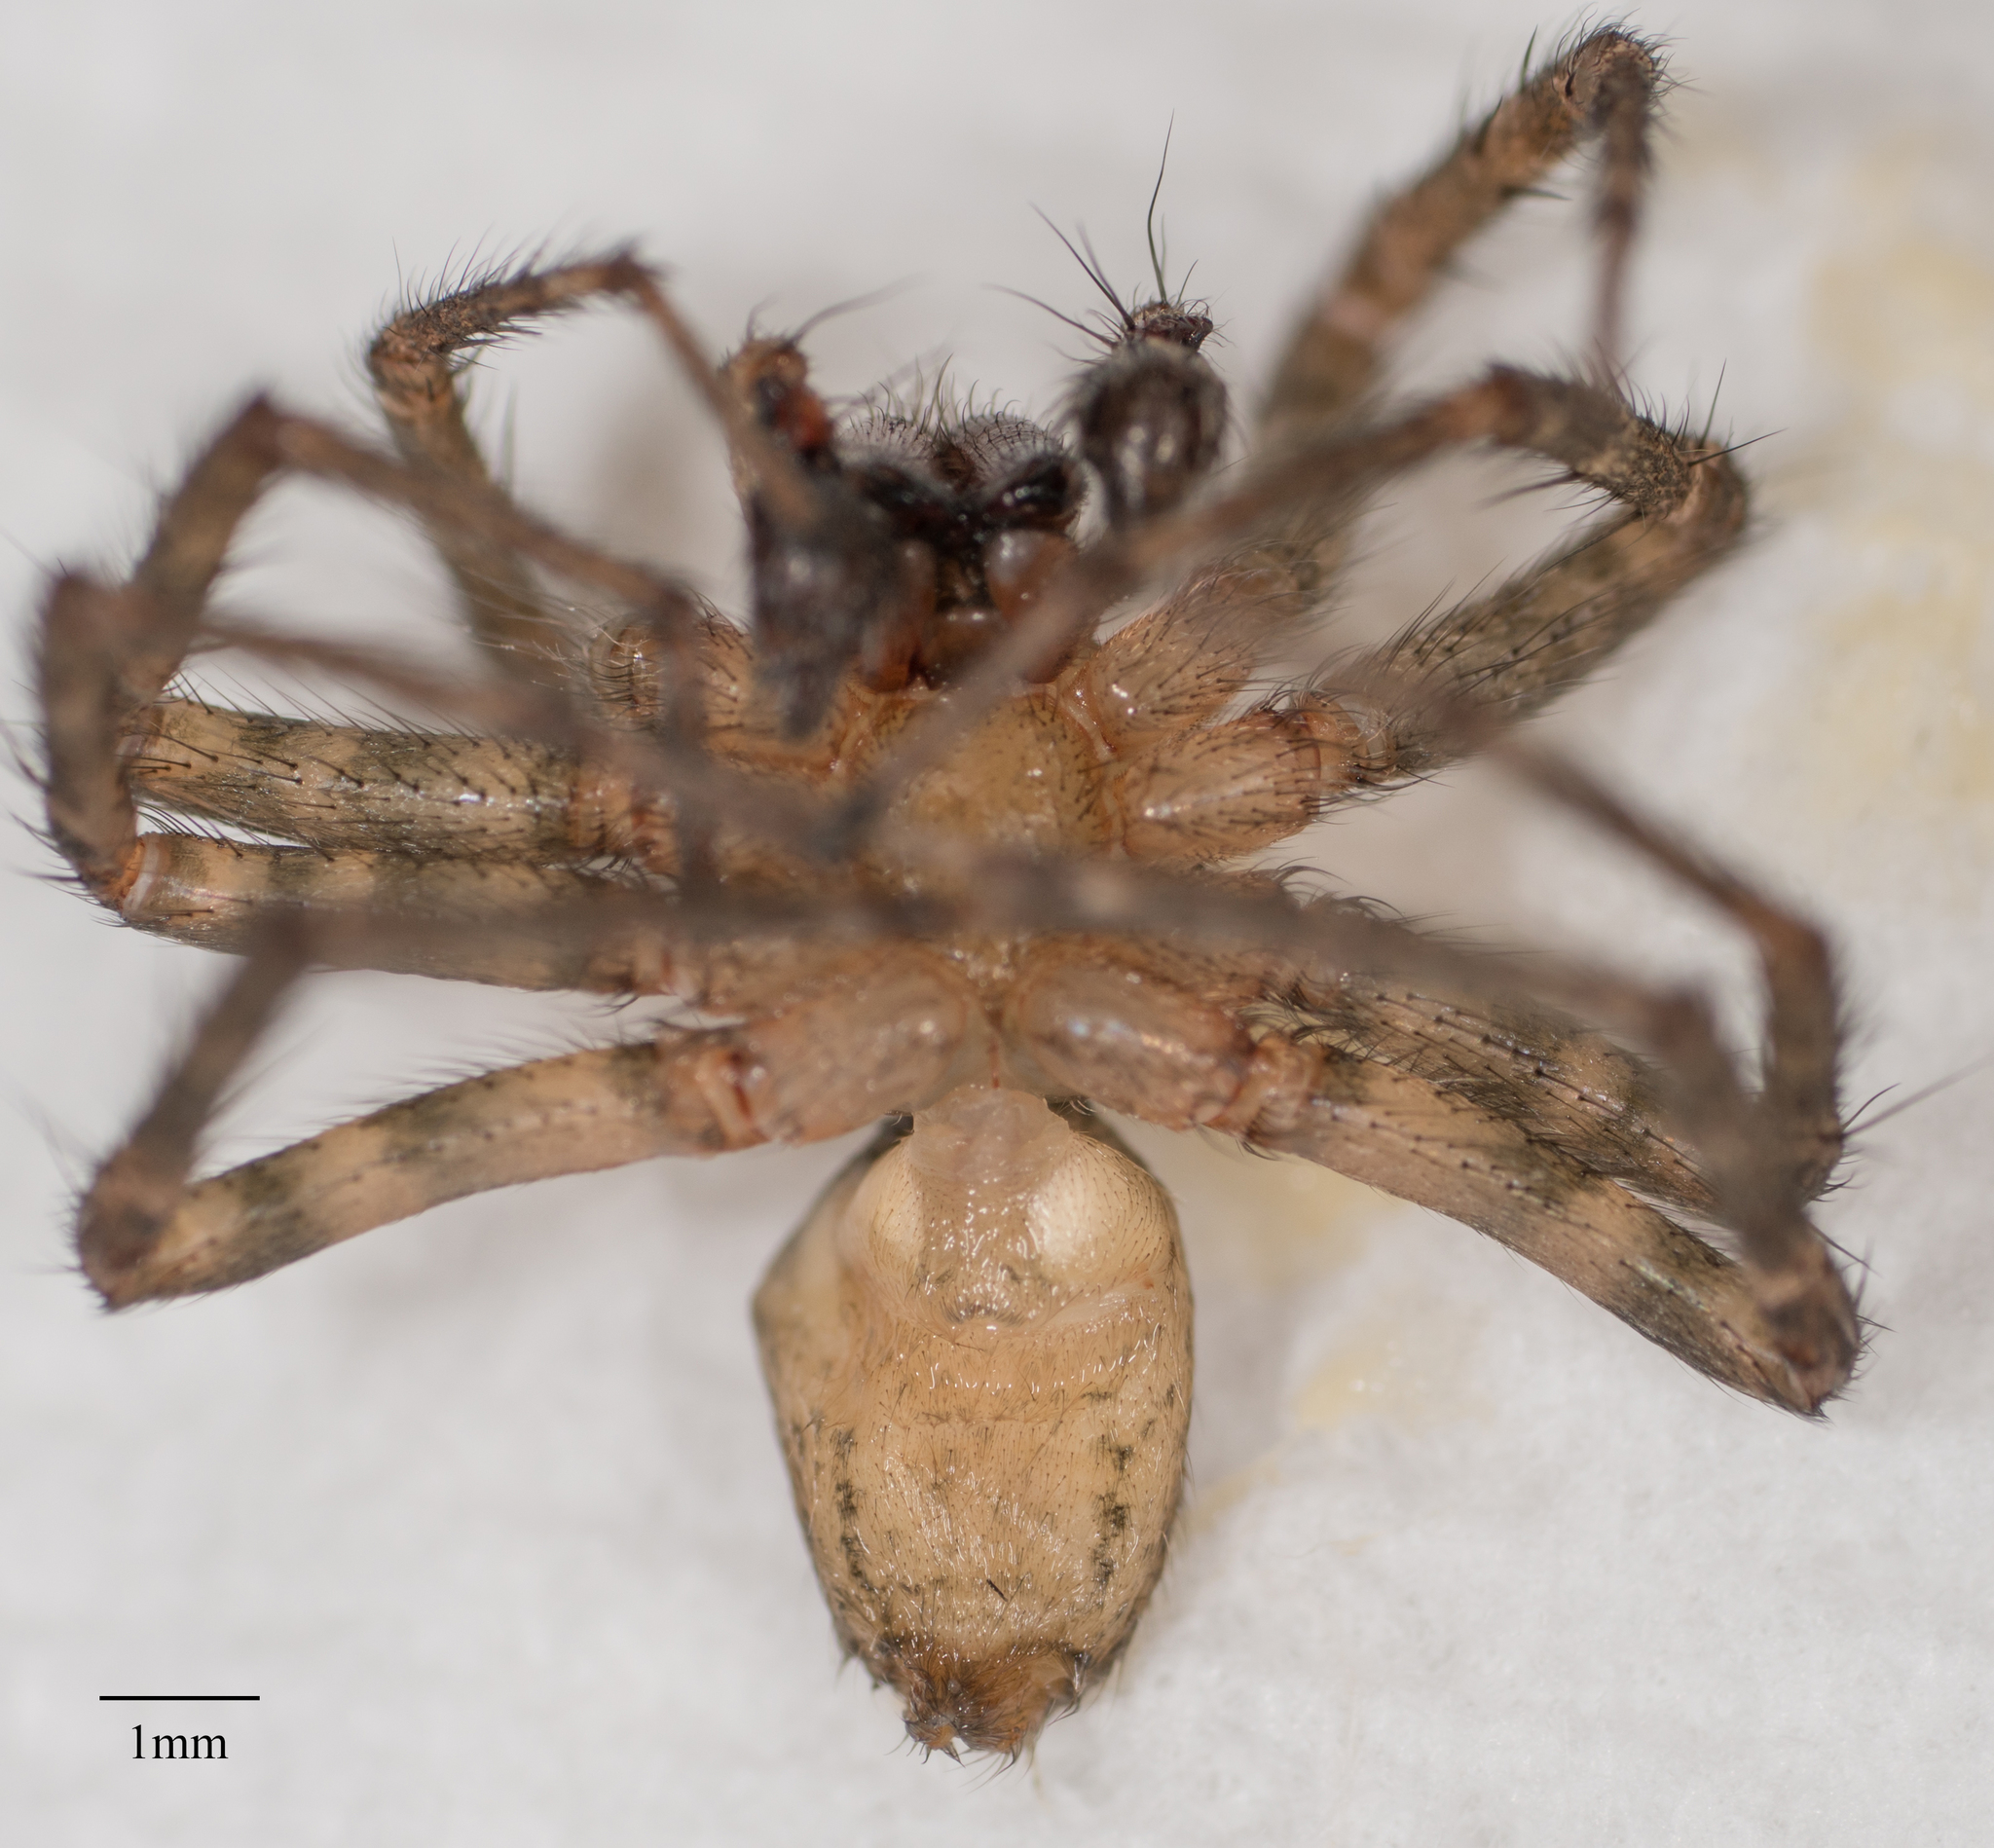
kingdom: Animalia
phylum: Arthropoda
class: Arachnida
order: Araneae
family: Agelenidae
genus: Hololena
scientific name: Hololena curta
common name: Corner funnel weaver
